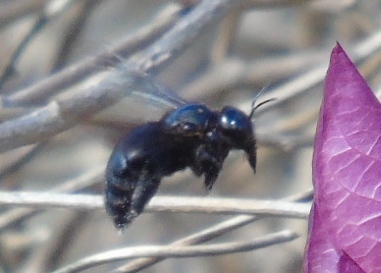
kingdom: Animalia
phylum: Arthropoda
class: Insecta
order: Hymenoptera
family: Apidae
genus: Xylocopa
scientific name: Xylocopa
